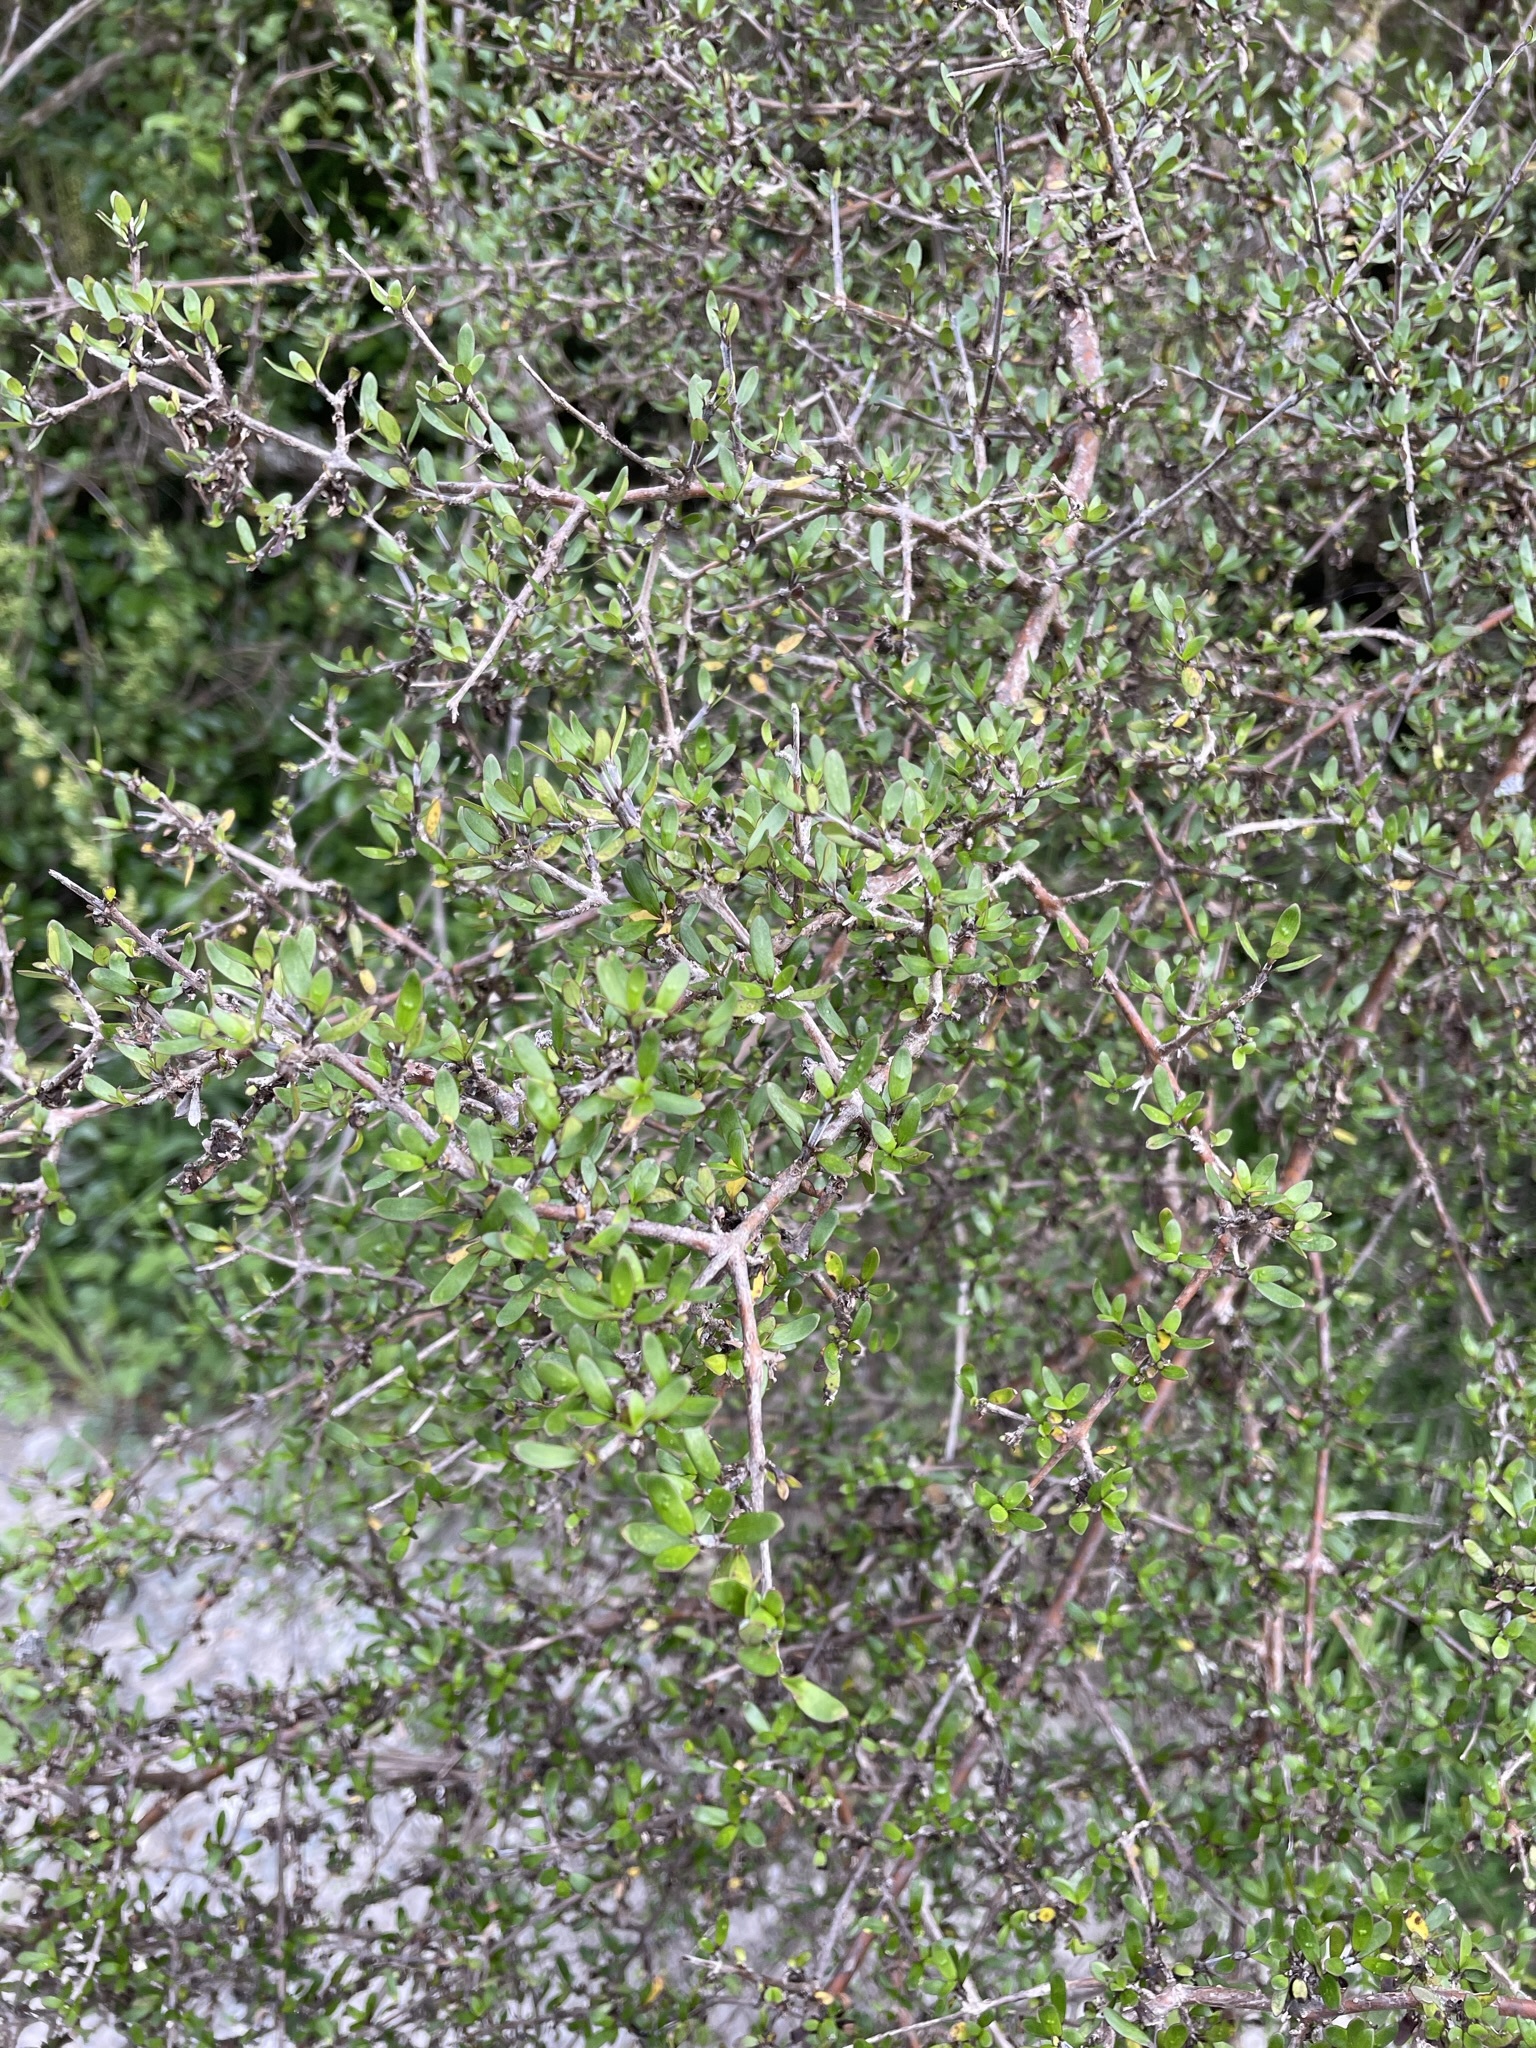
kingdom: Plantae
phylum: Tracheophyta
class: Magnoliopsida
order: Gentianales
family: Rubiaceae
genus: Coprosma
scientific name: Coprosma propinqua
